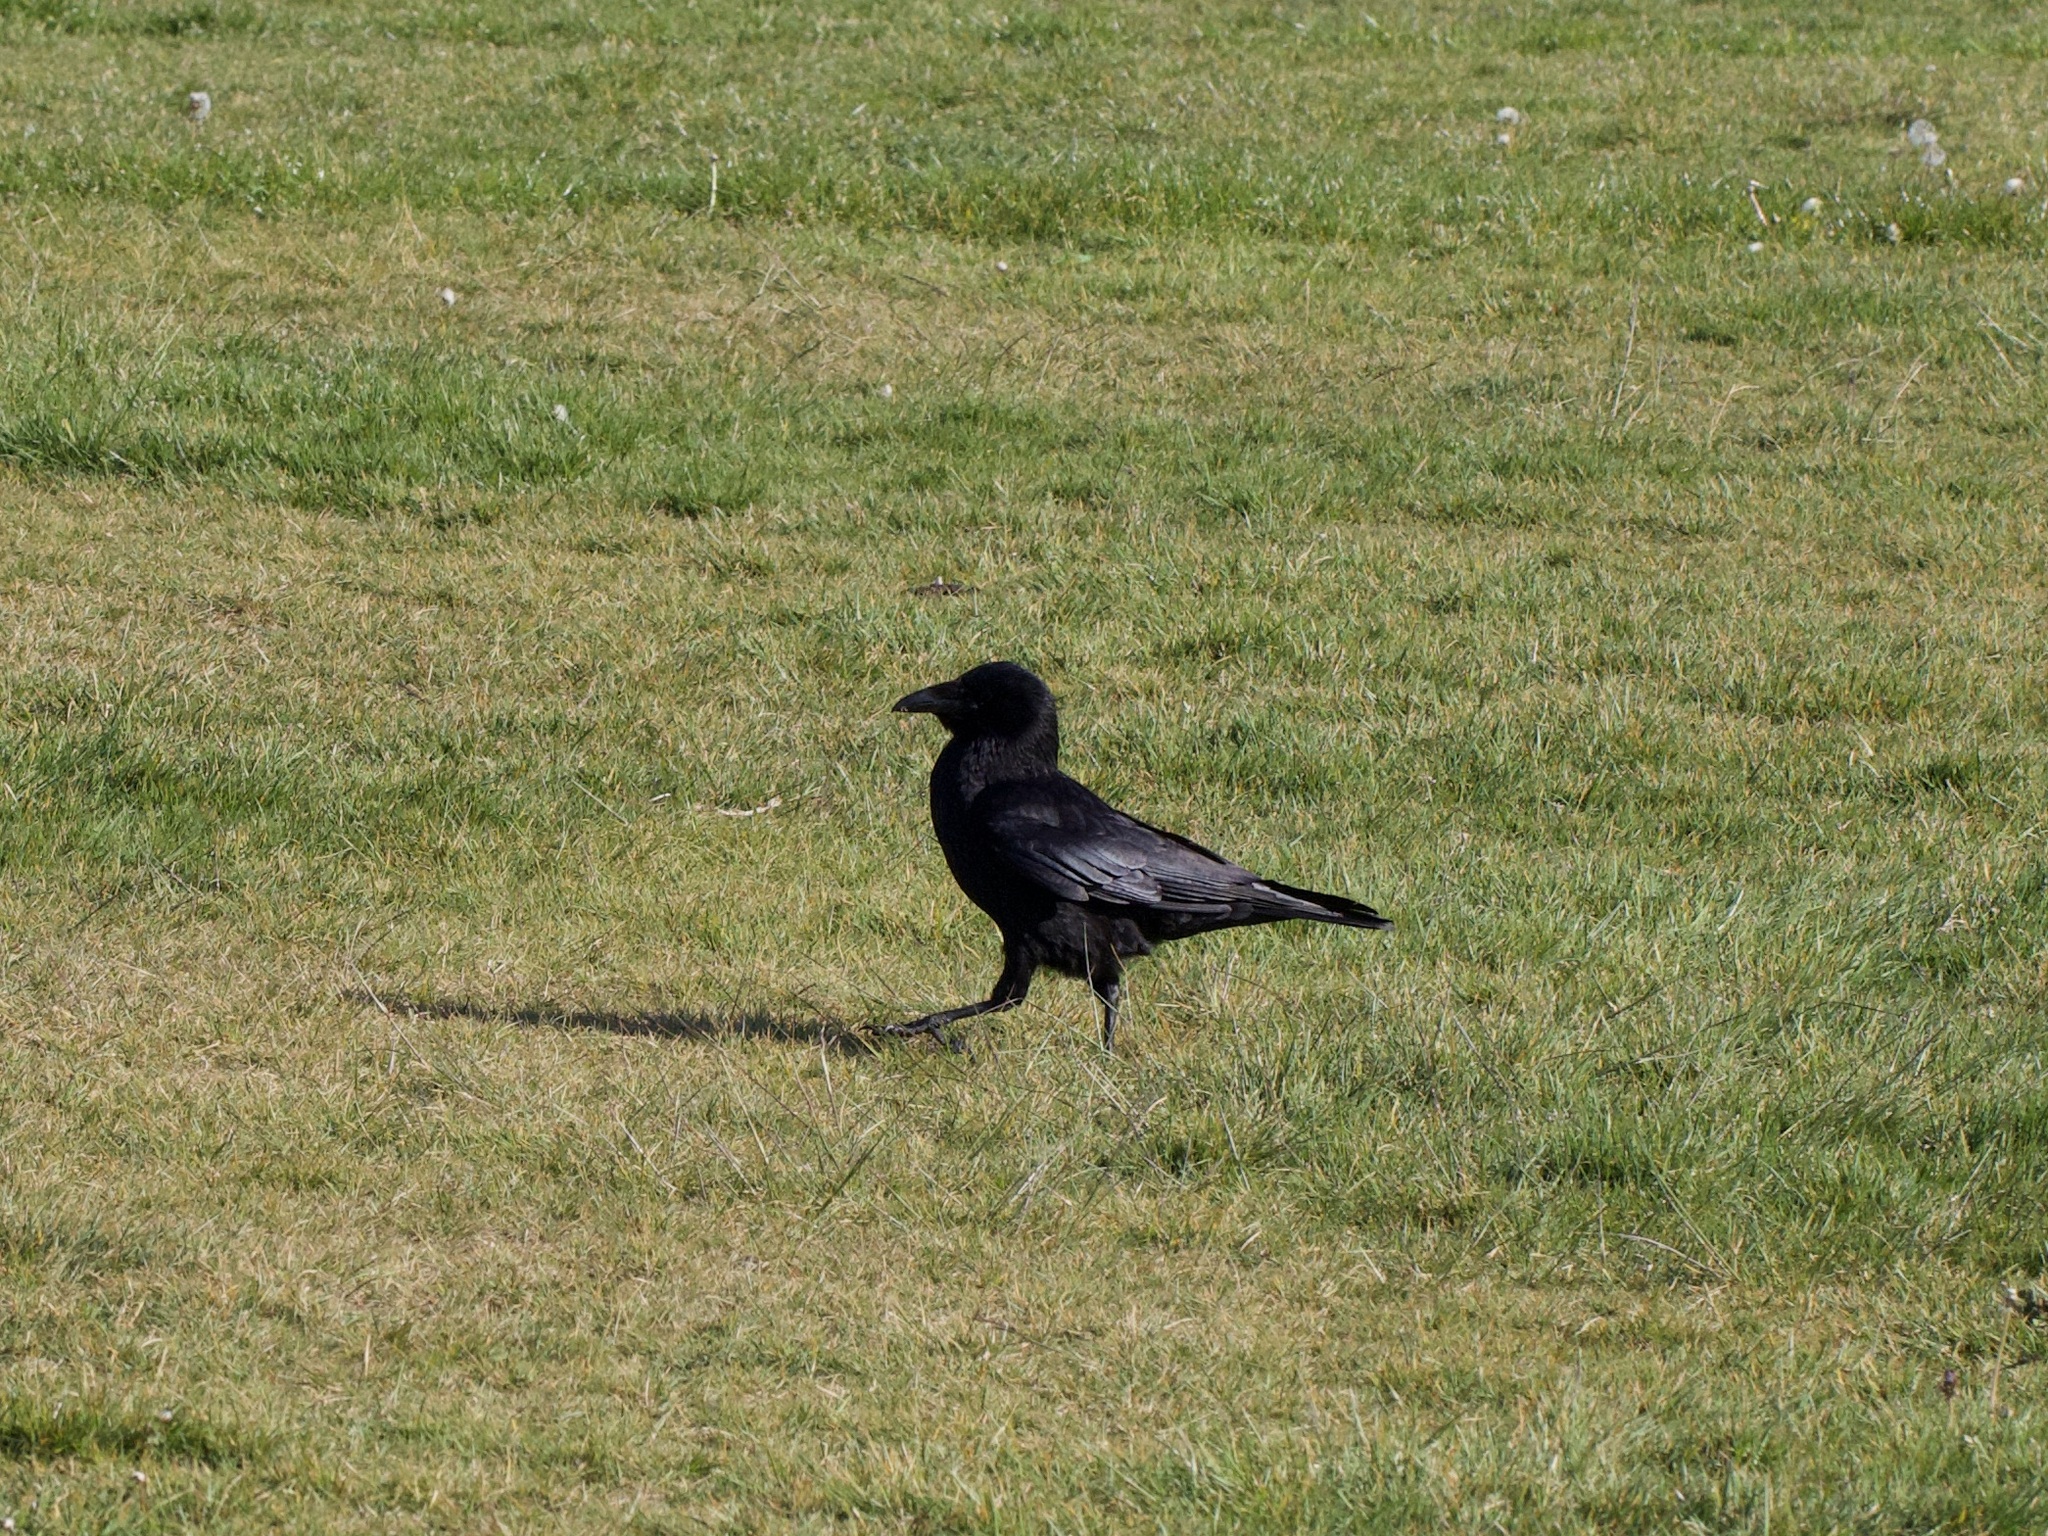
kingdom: Animalia
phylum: Chordata
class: Aves
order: Passeriformes
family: Corvidae
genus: Corvus
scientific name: Corvus corone
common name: Carrion crow
